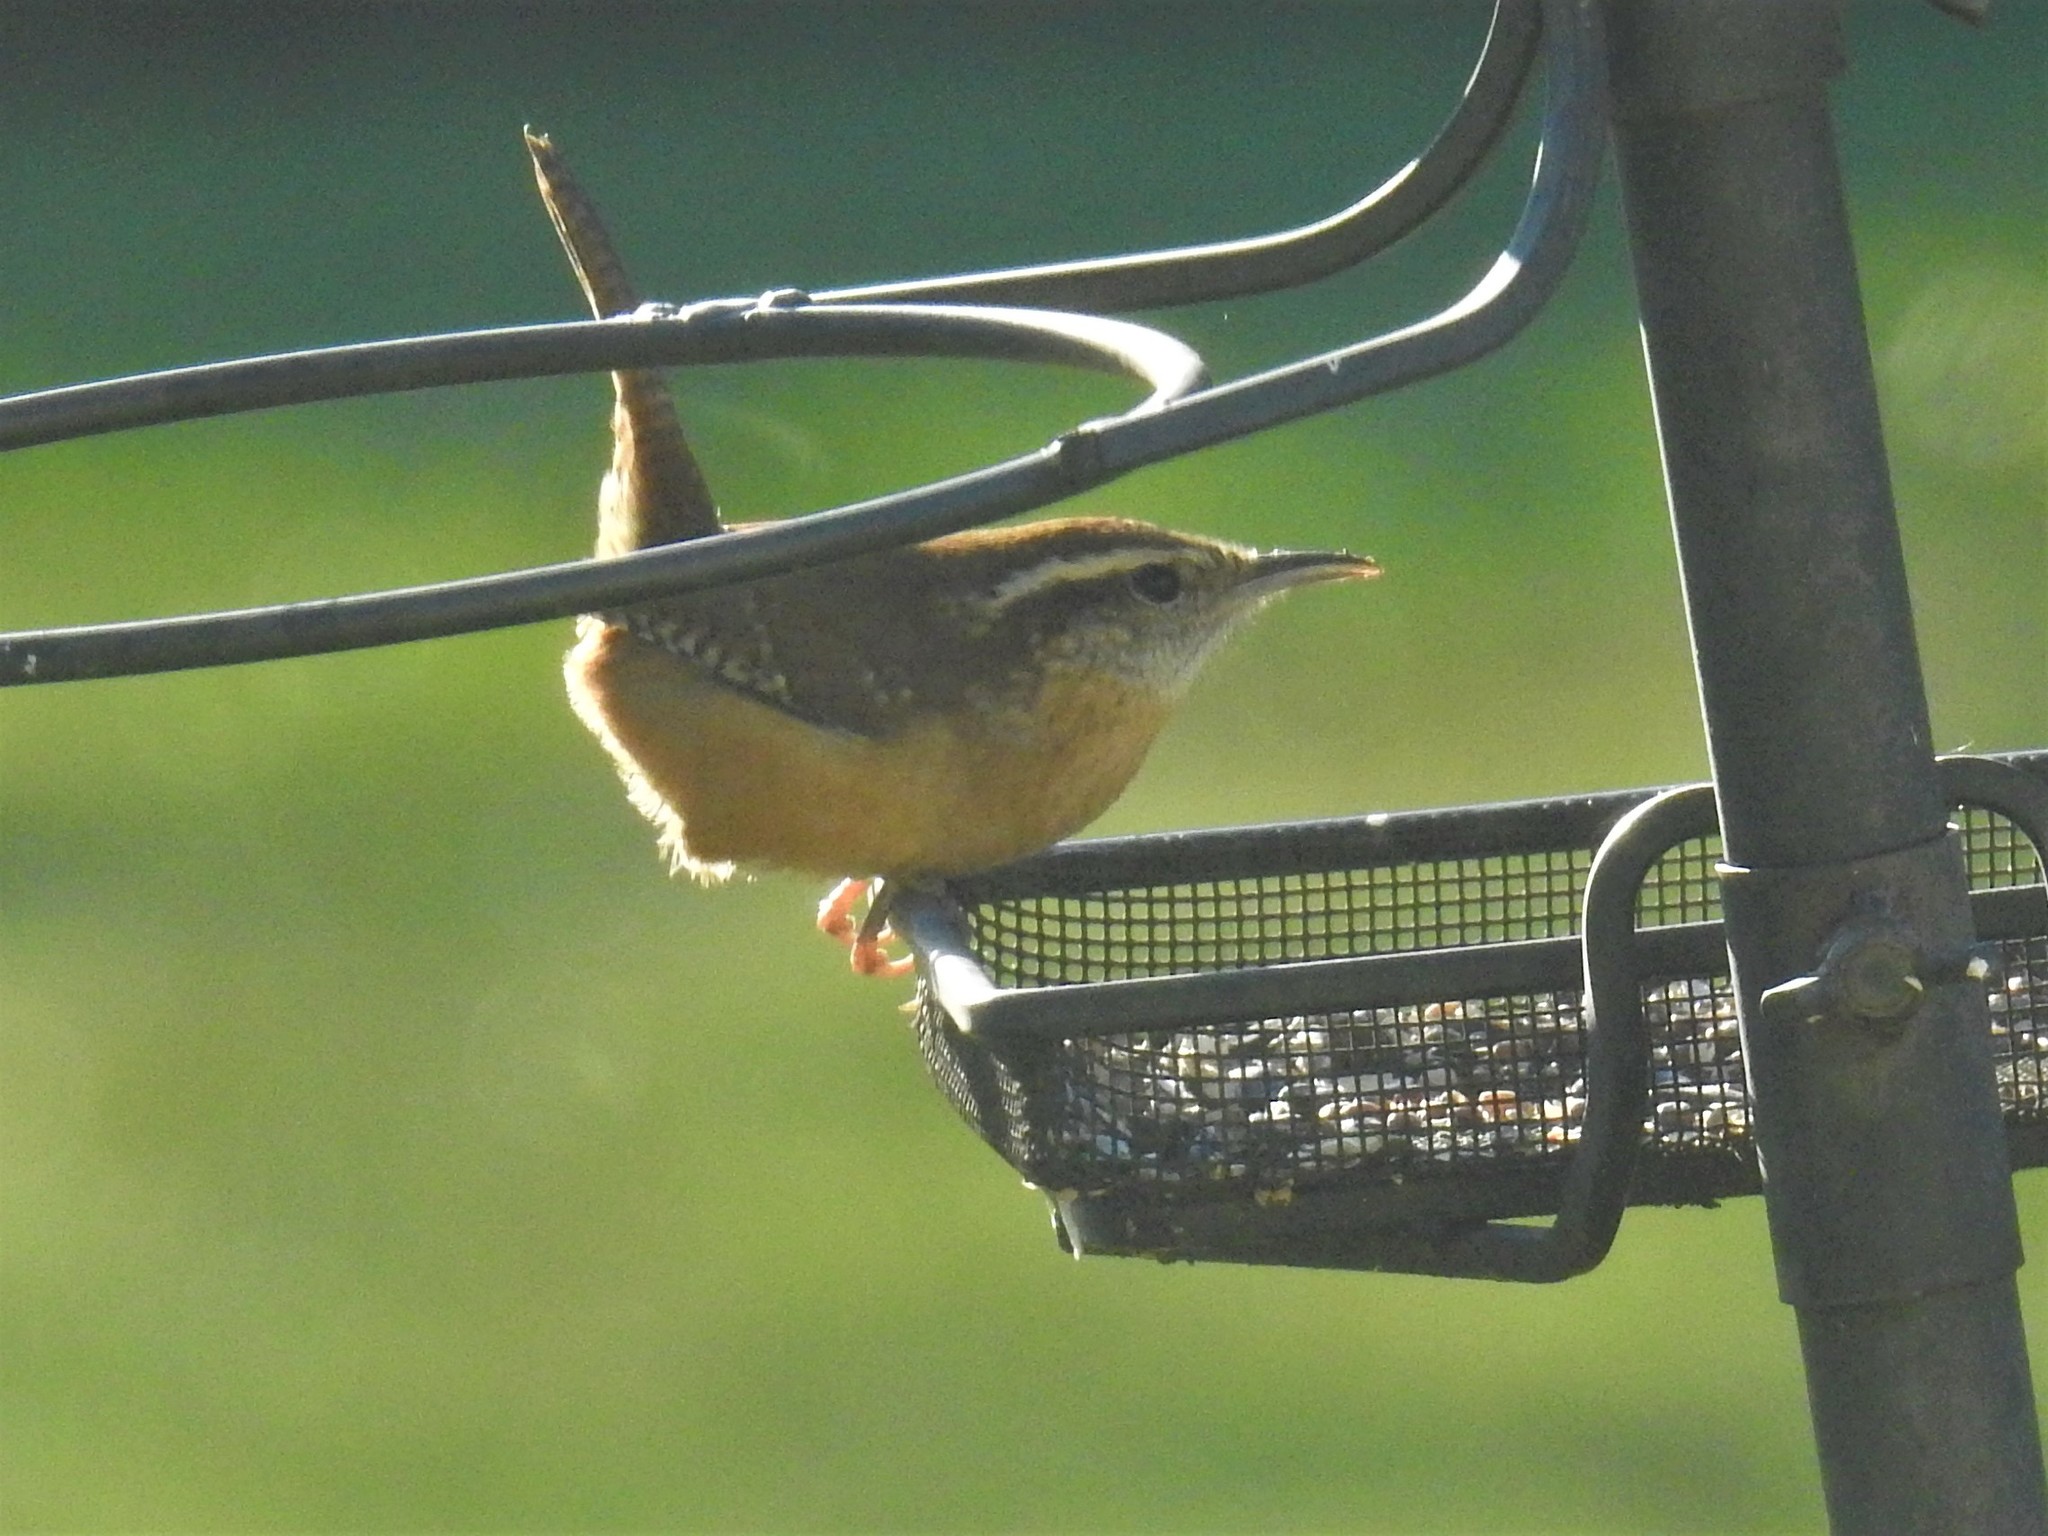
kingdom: Animalia
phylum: Chordata
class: Aves
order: Passeriformes
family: Troglodytidae
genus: Thryothorus
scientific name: Thryothorus ludovicianus
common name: Carolina wren
